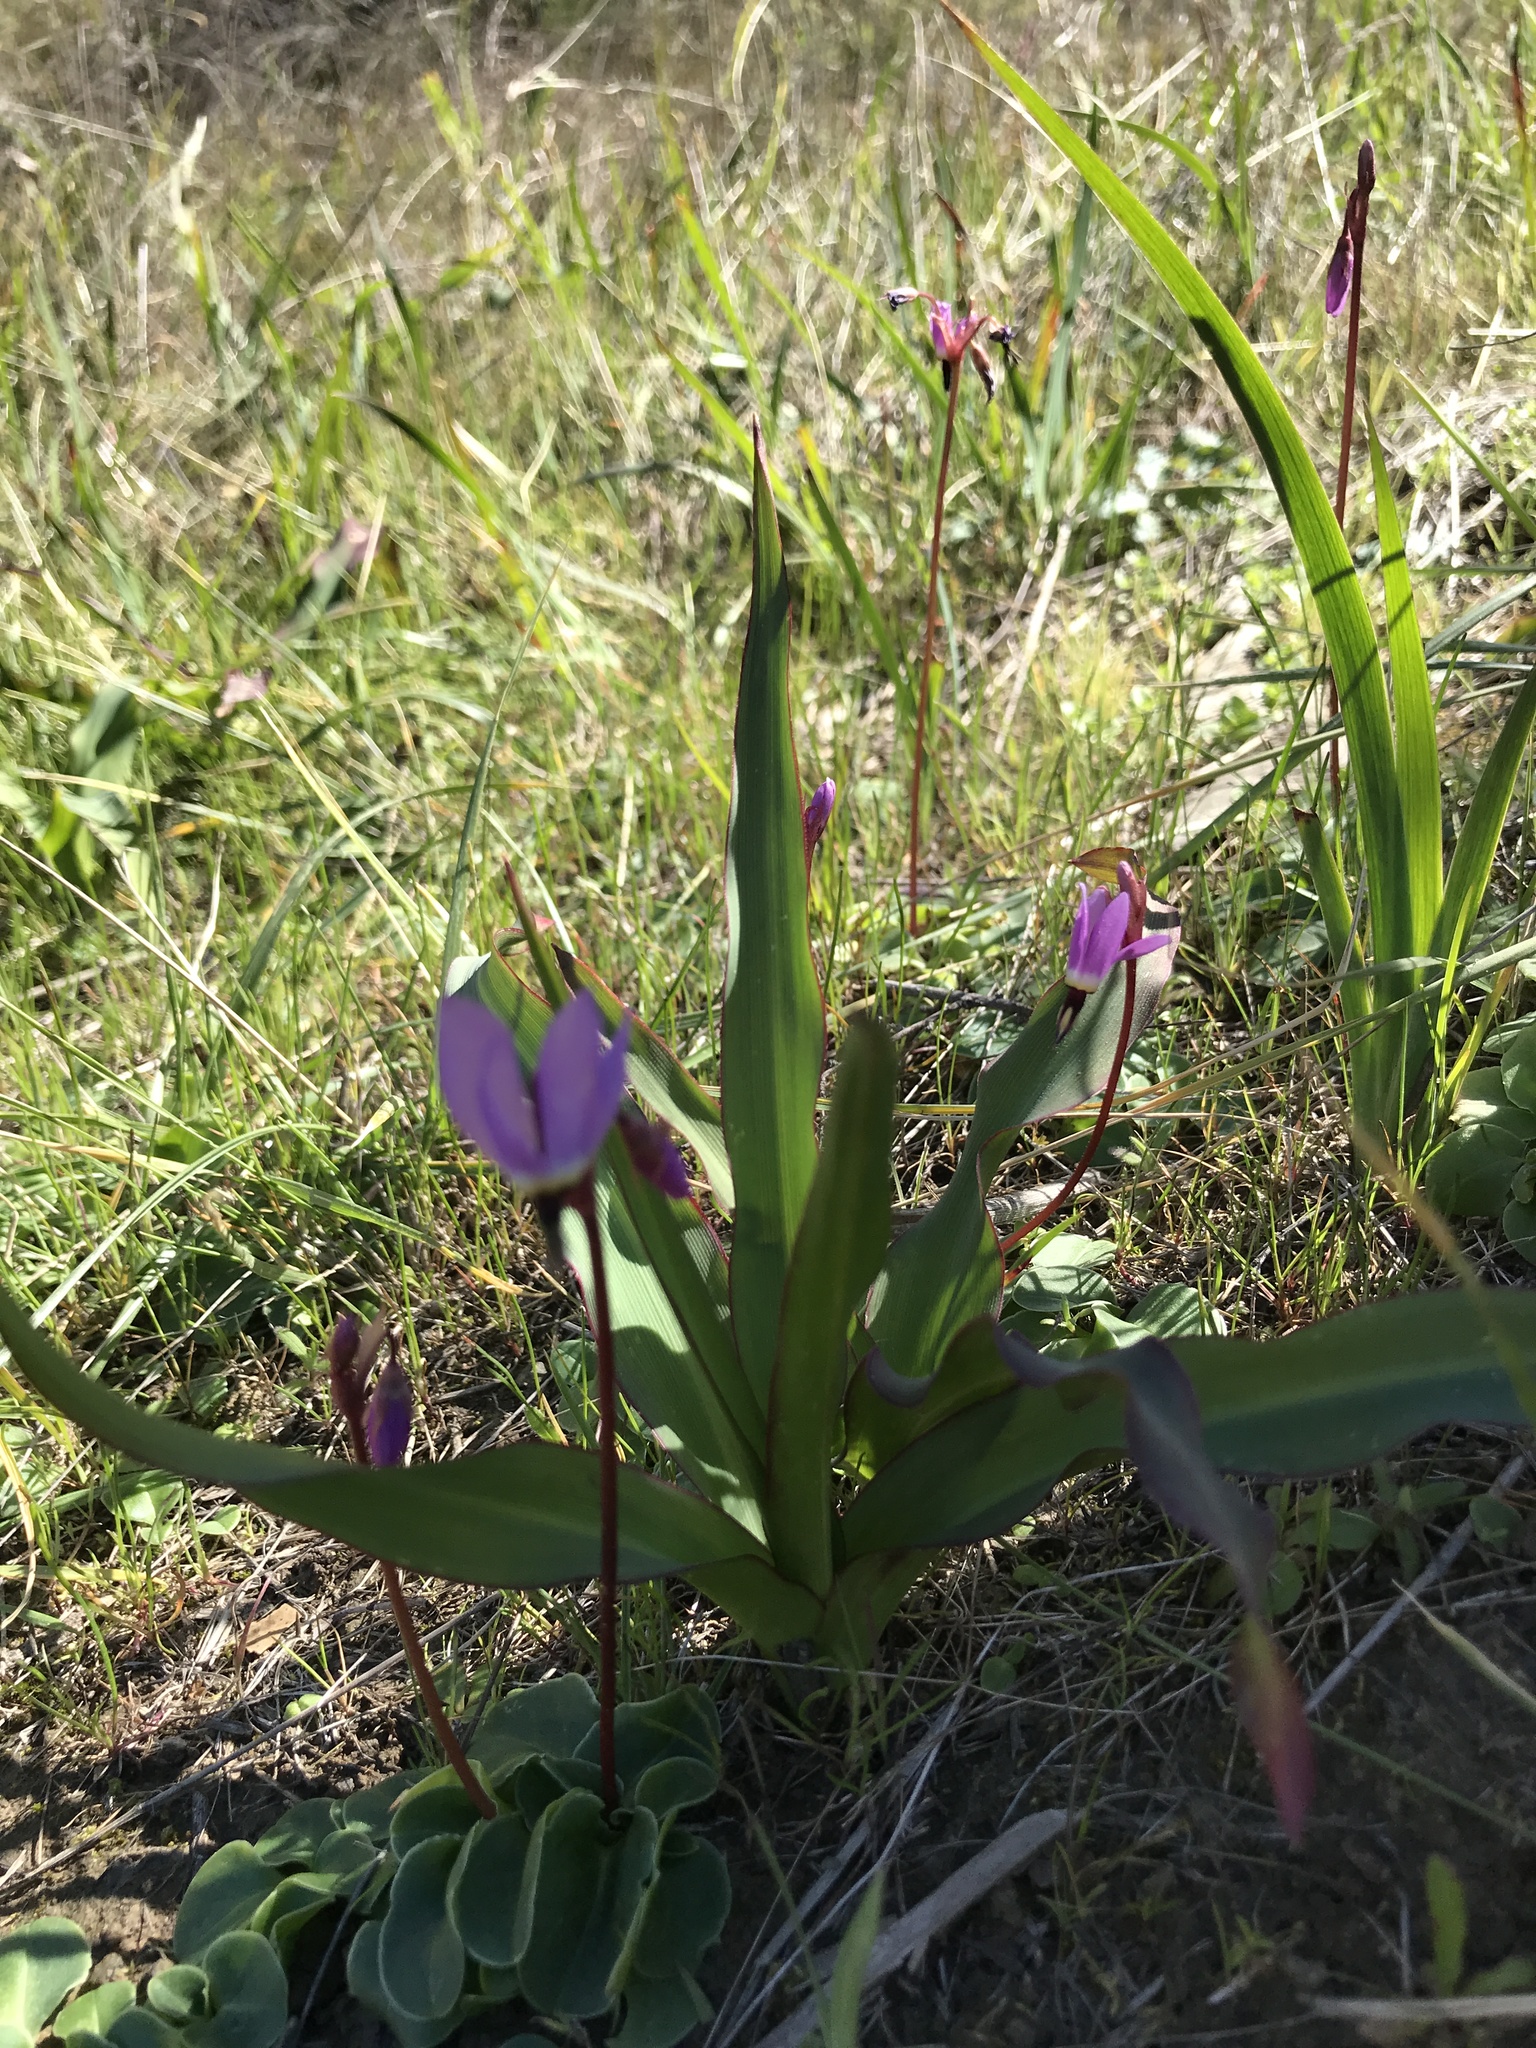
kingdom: Plantae
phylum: Tracheophyta
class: Magnoliopsida
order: Ericales
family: Primulaceae
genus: Dodecatheon
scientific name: Dodecatheon hendersonii
